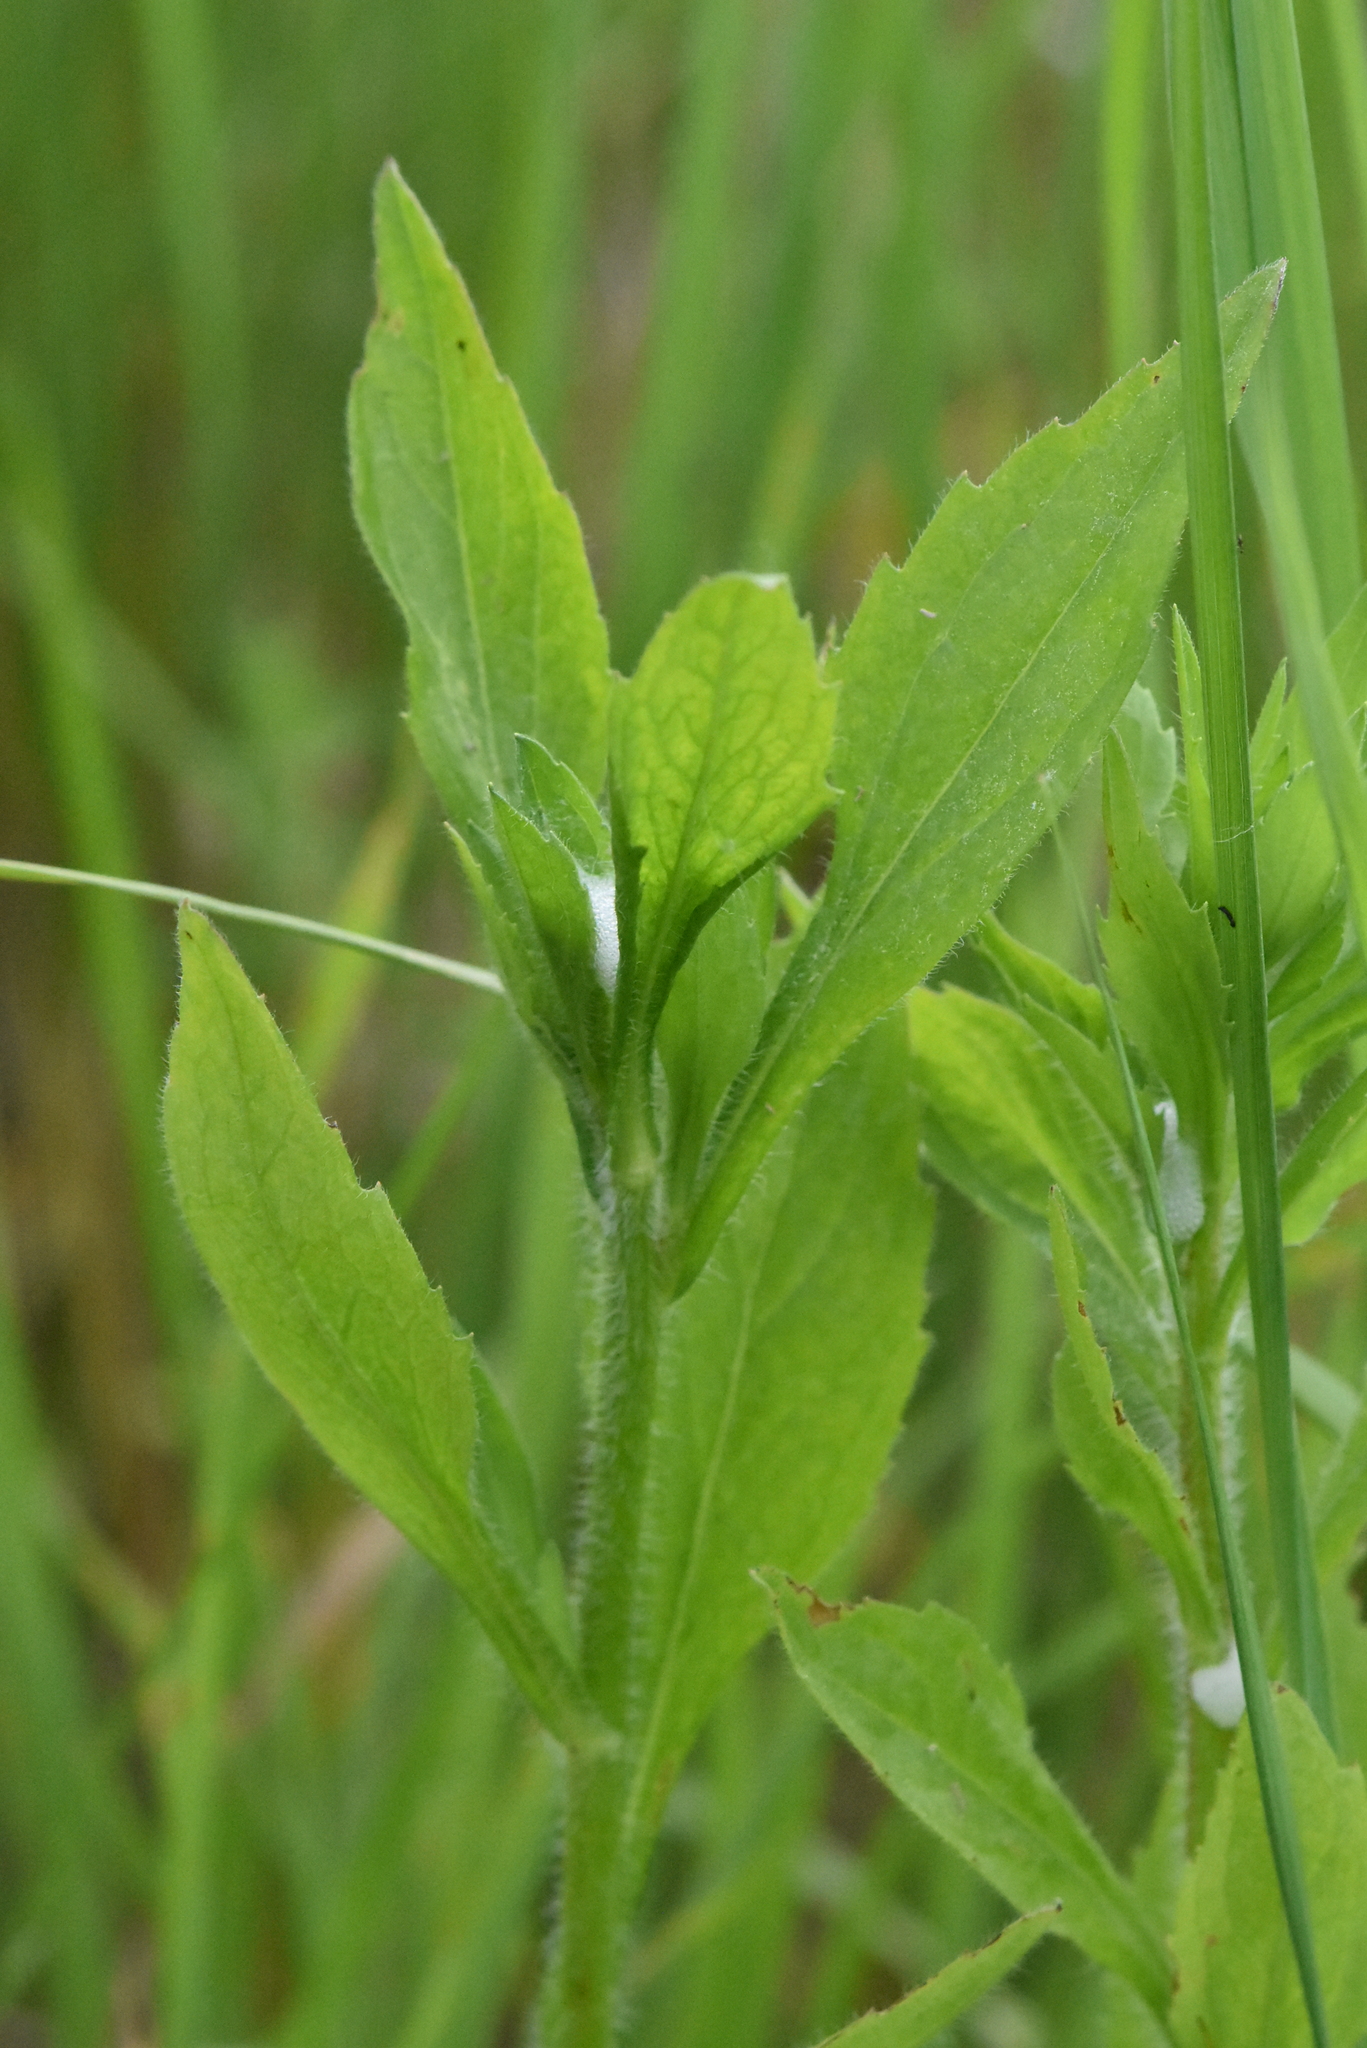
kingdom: Plantae
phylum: Tracheophyta
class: Magnoliopsida
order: Asterales
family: Asteraceae
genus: Erigeron
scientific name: Erigeron annuus
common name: Tall fleabane
